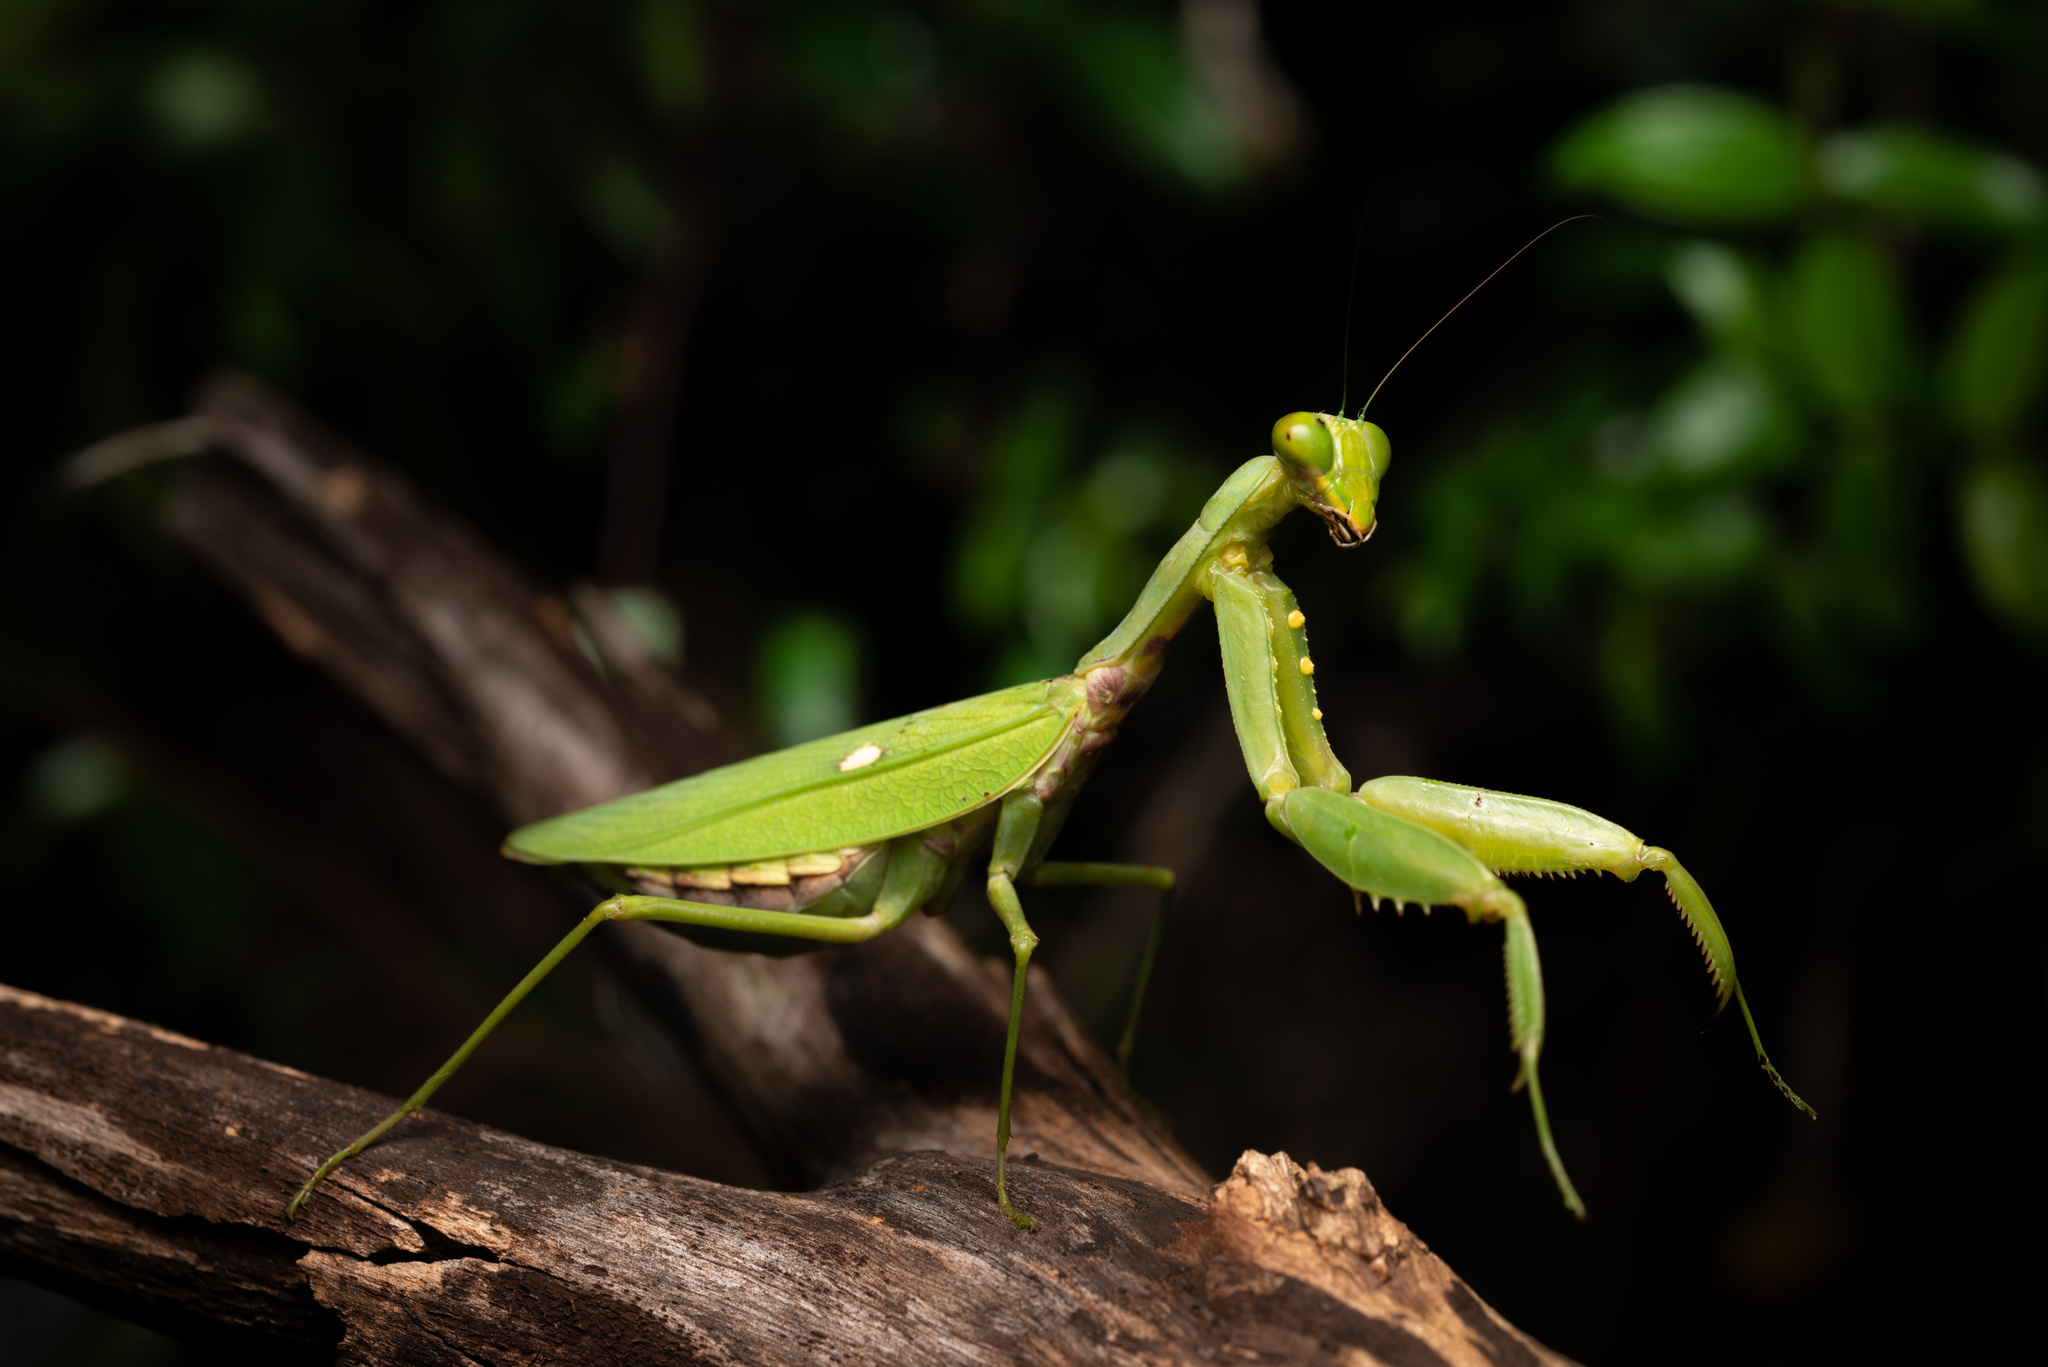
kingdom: Animalia
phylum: Arthropoda
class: Insecta
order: Mantodea
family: Mantidae
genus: Hierodula
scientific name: Hierodula patellifera
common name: Asian mantis
